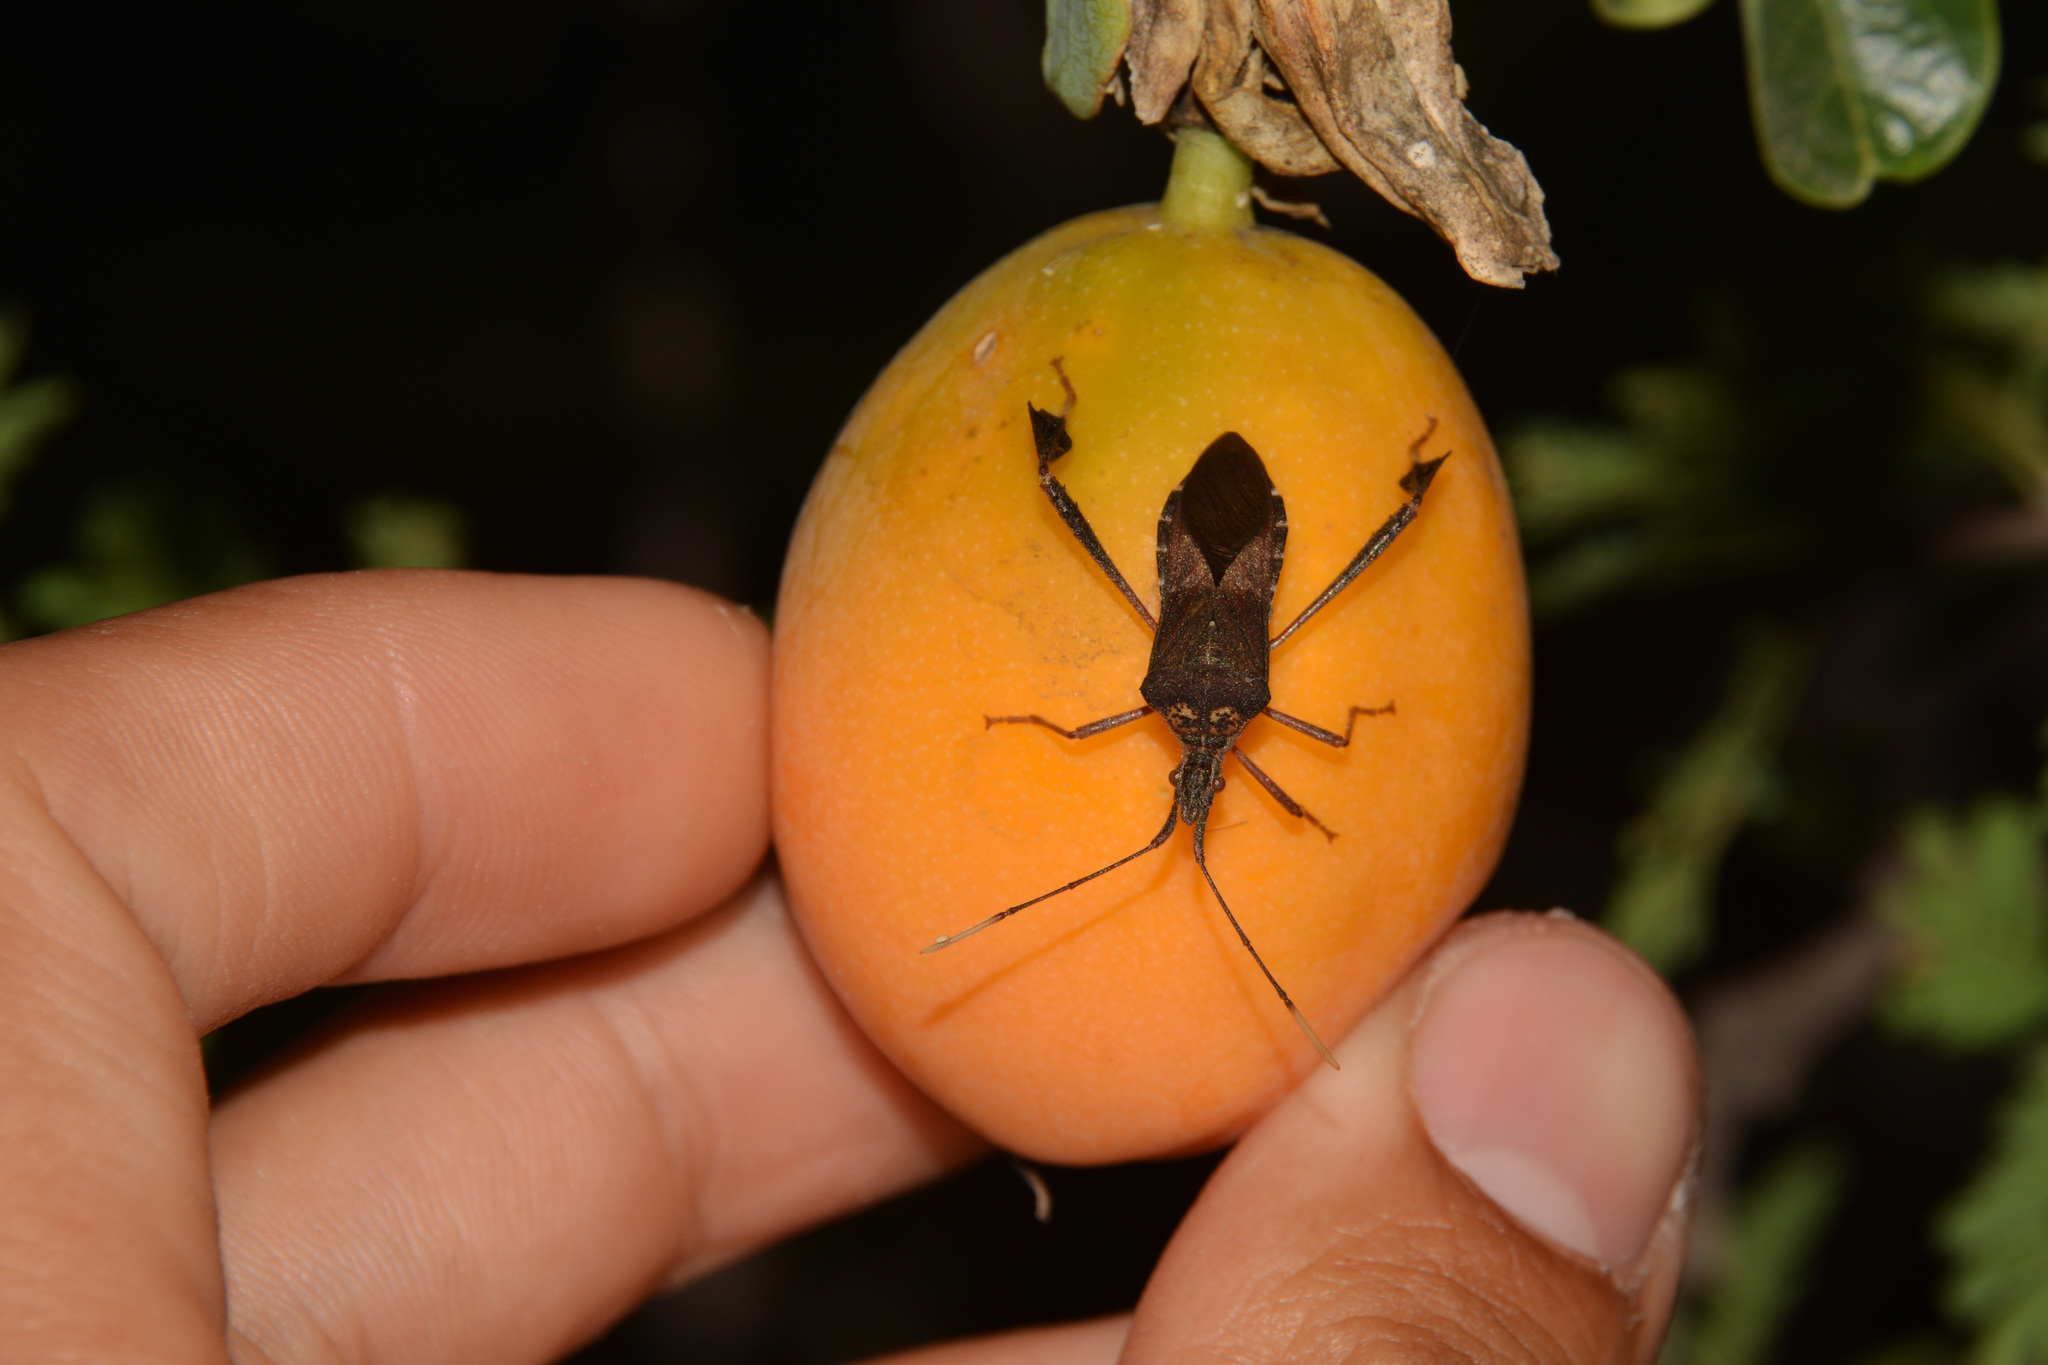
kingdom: Animalia
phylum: Arthropoda
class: Insecta
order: Hemiptera
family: Coreidae
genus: Leptoglossus
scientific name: Leptoglossus neovexillatus
